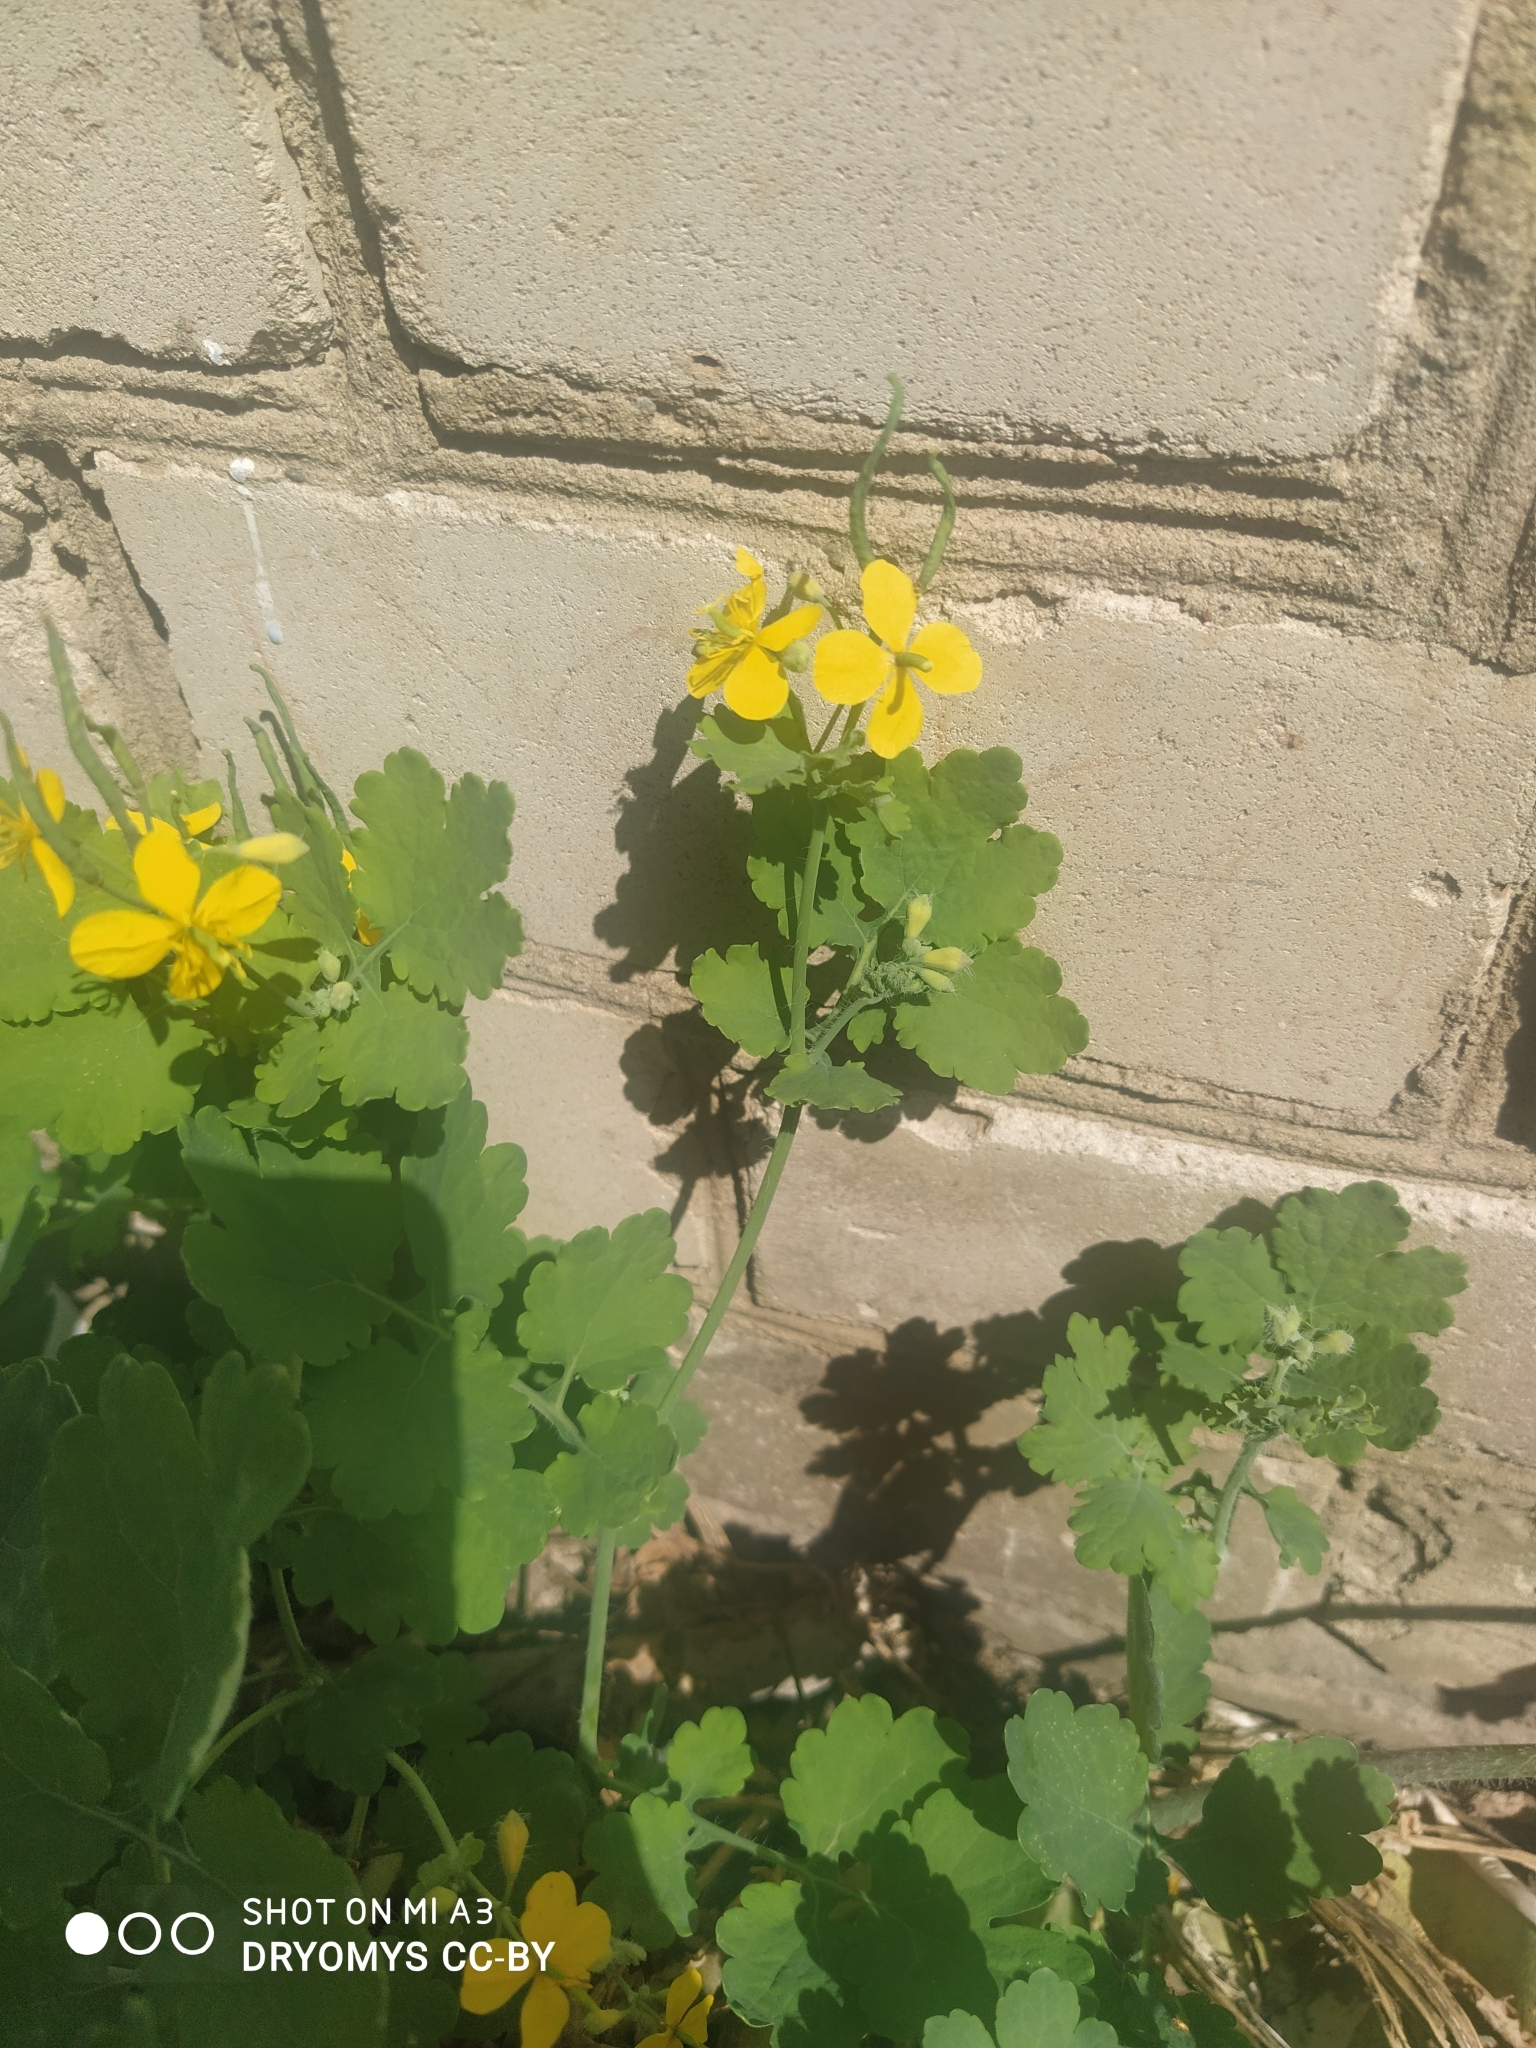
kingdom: Plantae
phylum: Tracheophyta
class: Magnoliopsida
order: Ranunculales
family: Papaveraceae
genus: Chelidonium
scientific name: Chelidonium majus
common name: Greater celandine
